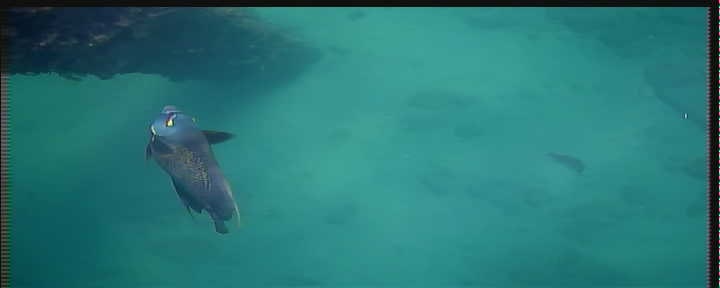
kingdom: Animalia
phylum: Chordata
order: Perciformes
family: Pomacanthidae
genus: Pomacanthus
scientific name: Pomacanthus paru
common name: French angelfish
